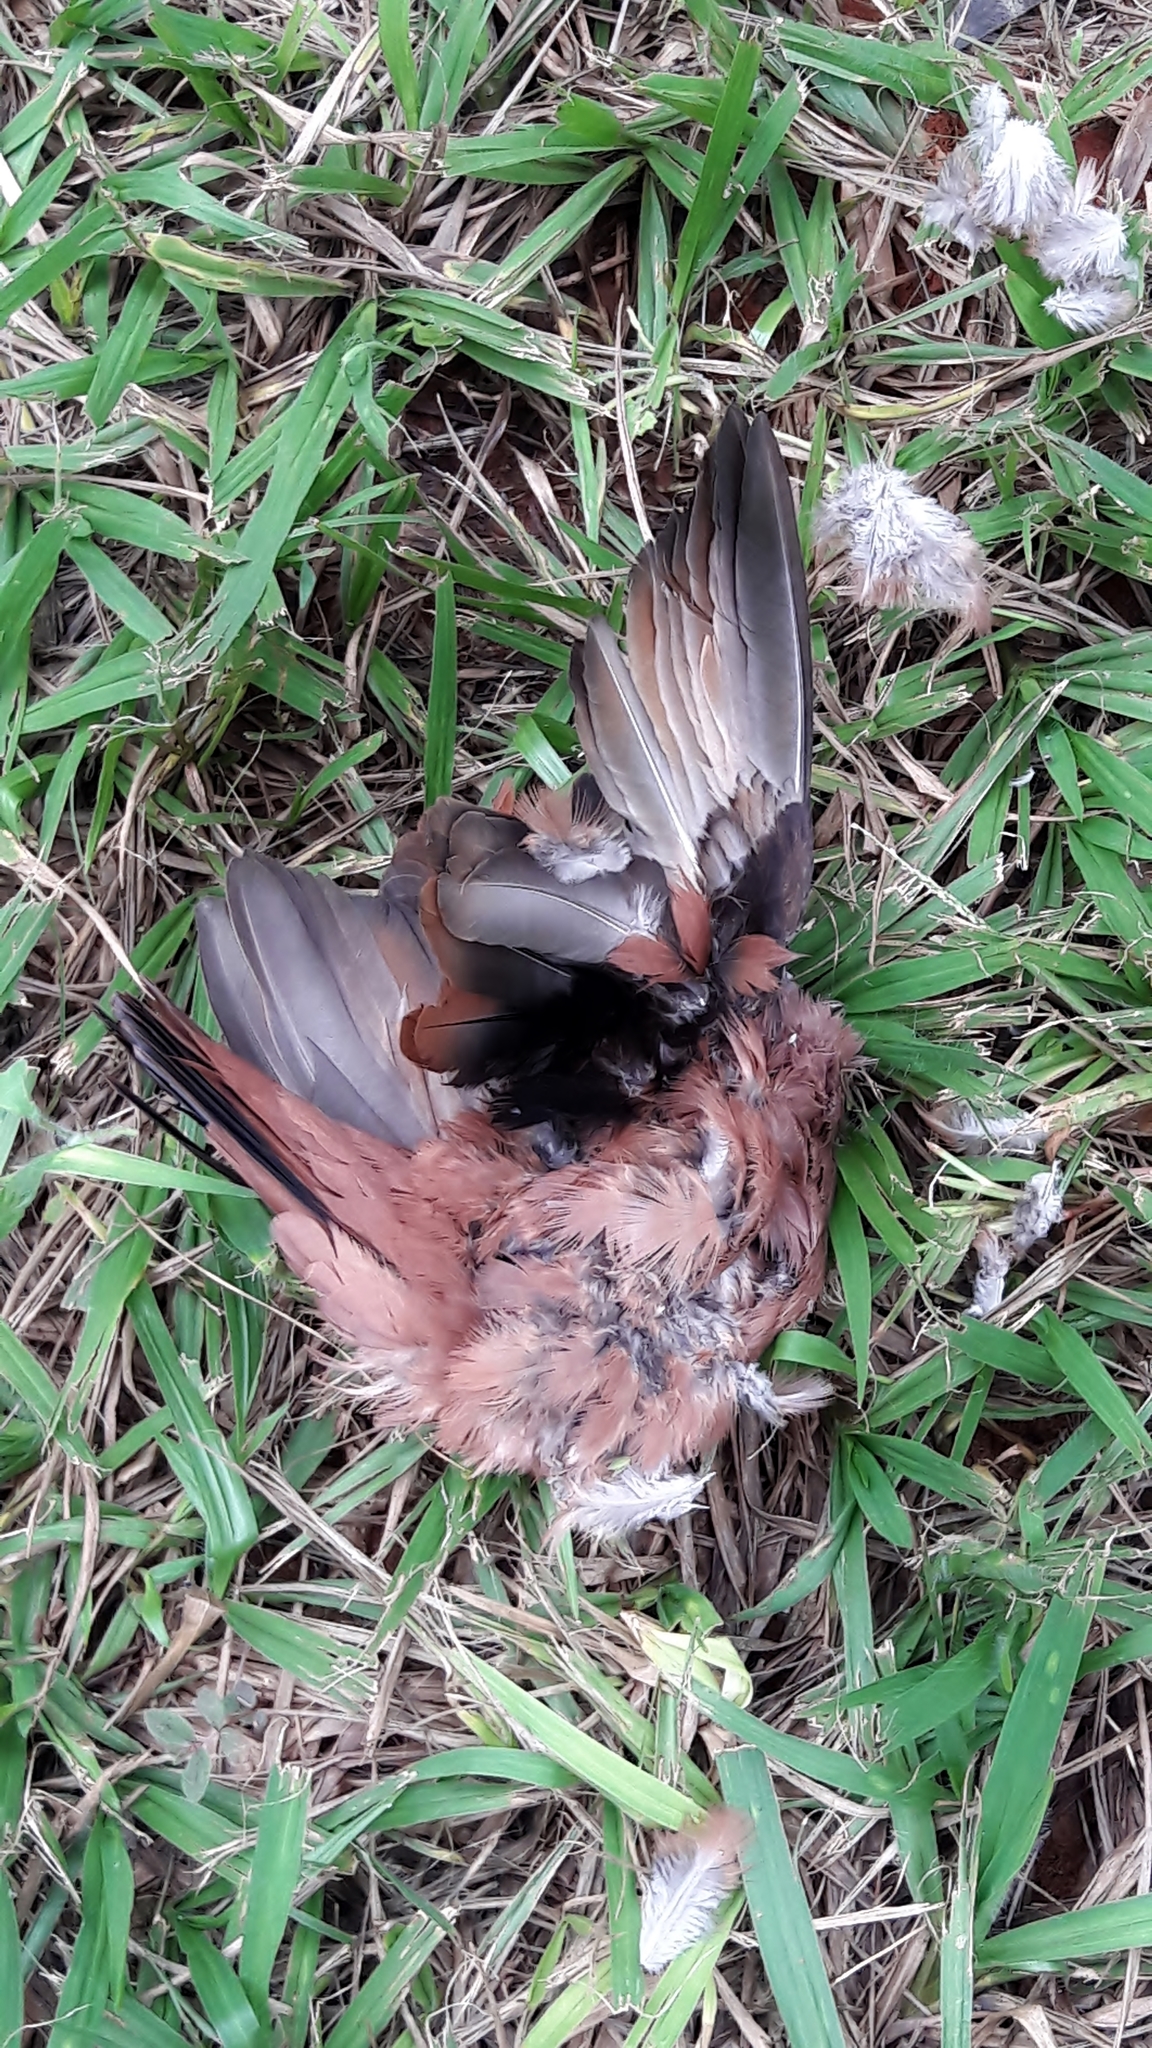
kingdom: Animalia
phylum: Chordata
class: Aves
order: Columbiformes
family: Columbidae
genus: Columbina
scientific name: Columbina talpacoti
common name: Ruddy ground dove
